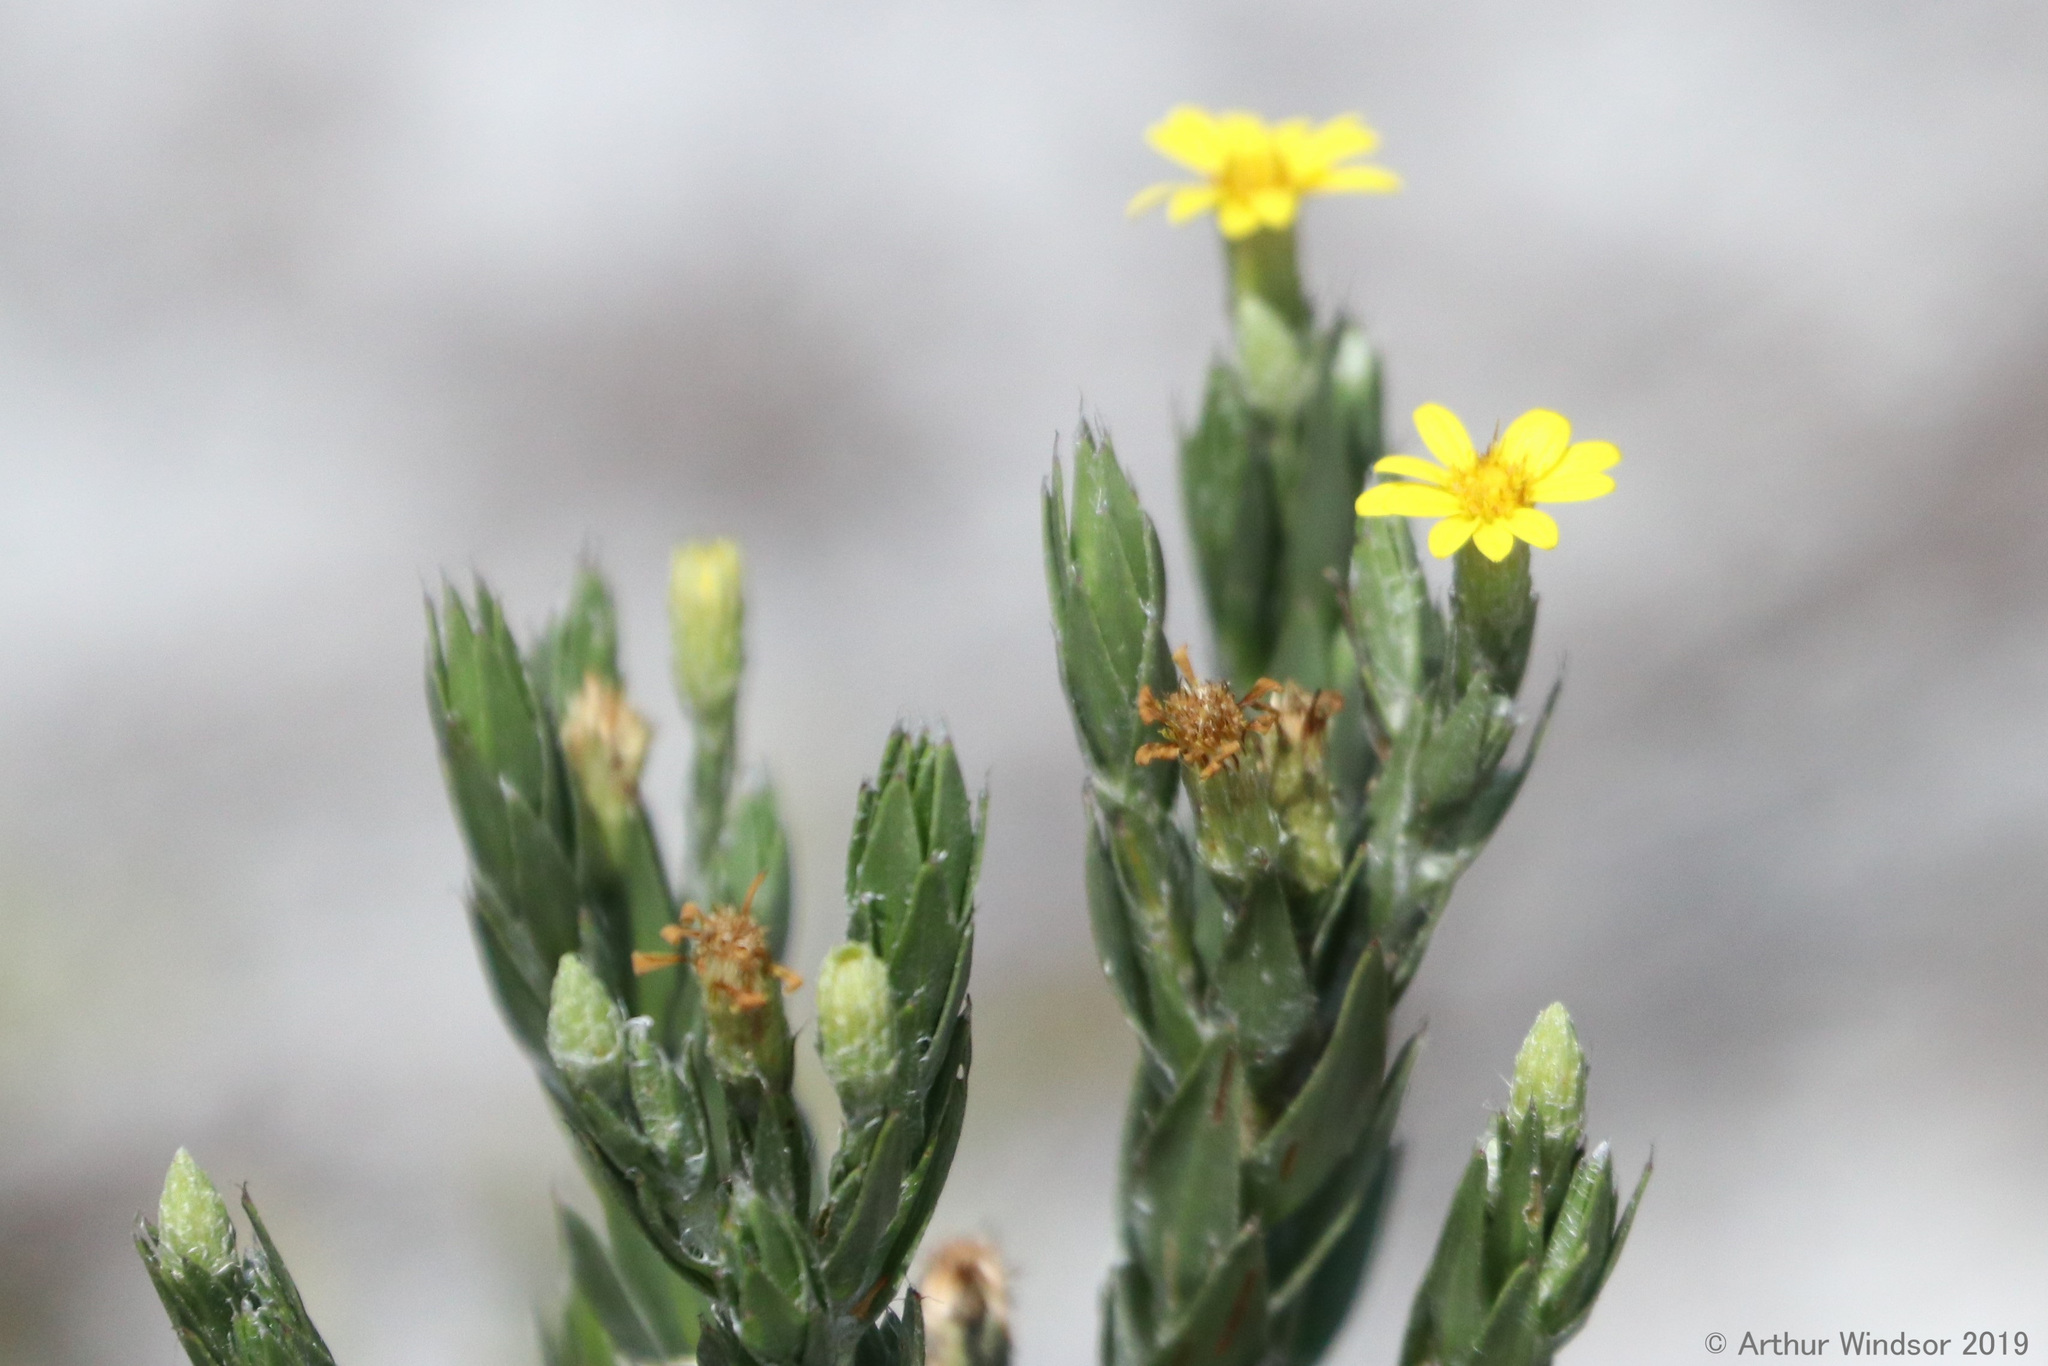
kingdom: Plantae
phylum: Tracheophyta
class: Magnoliopsida
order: Asterales
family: Asteraceae
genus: Pityopsis
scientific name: Pityopsis latifolia
